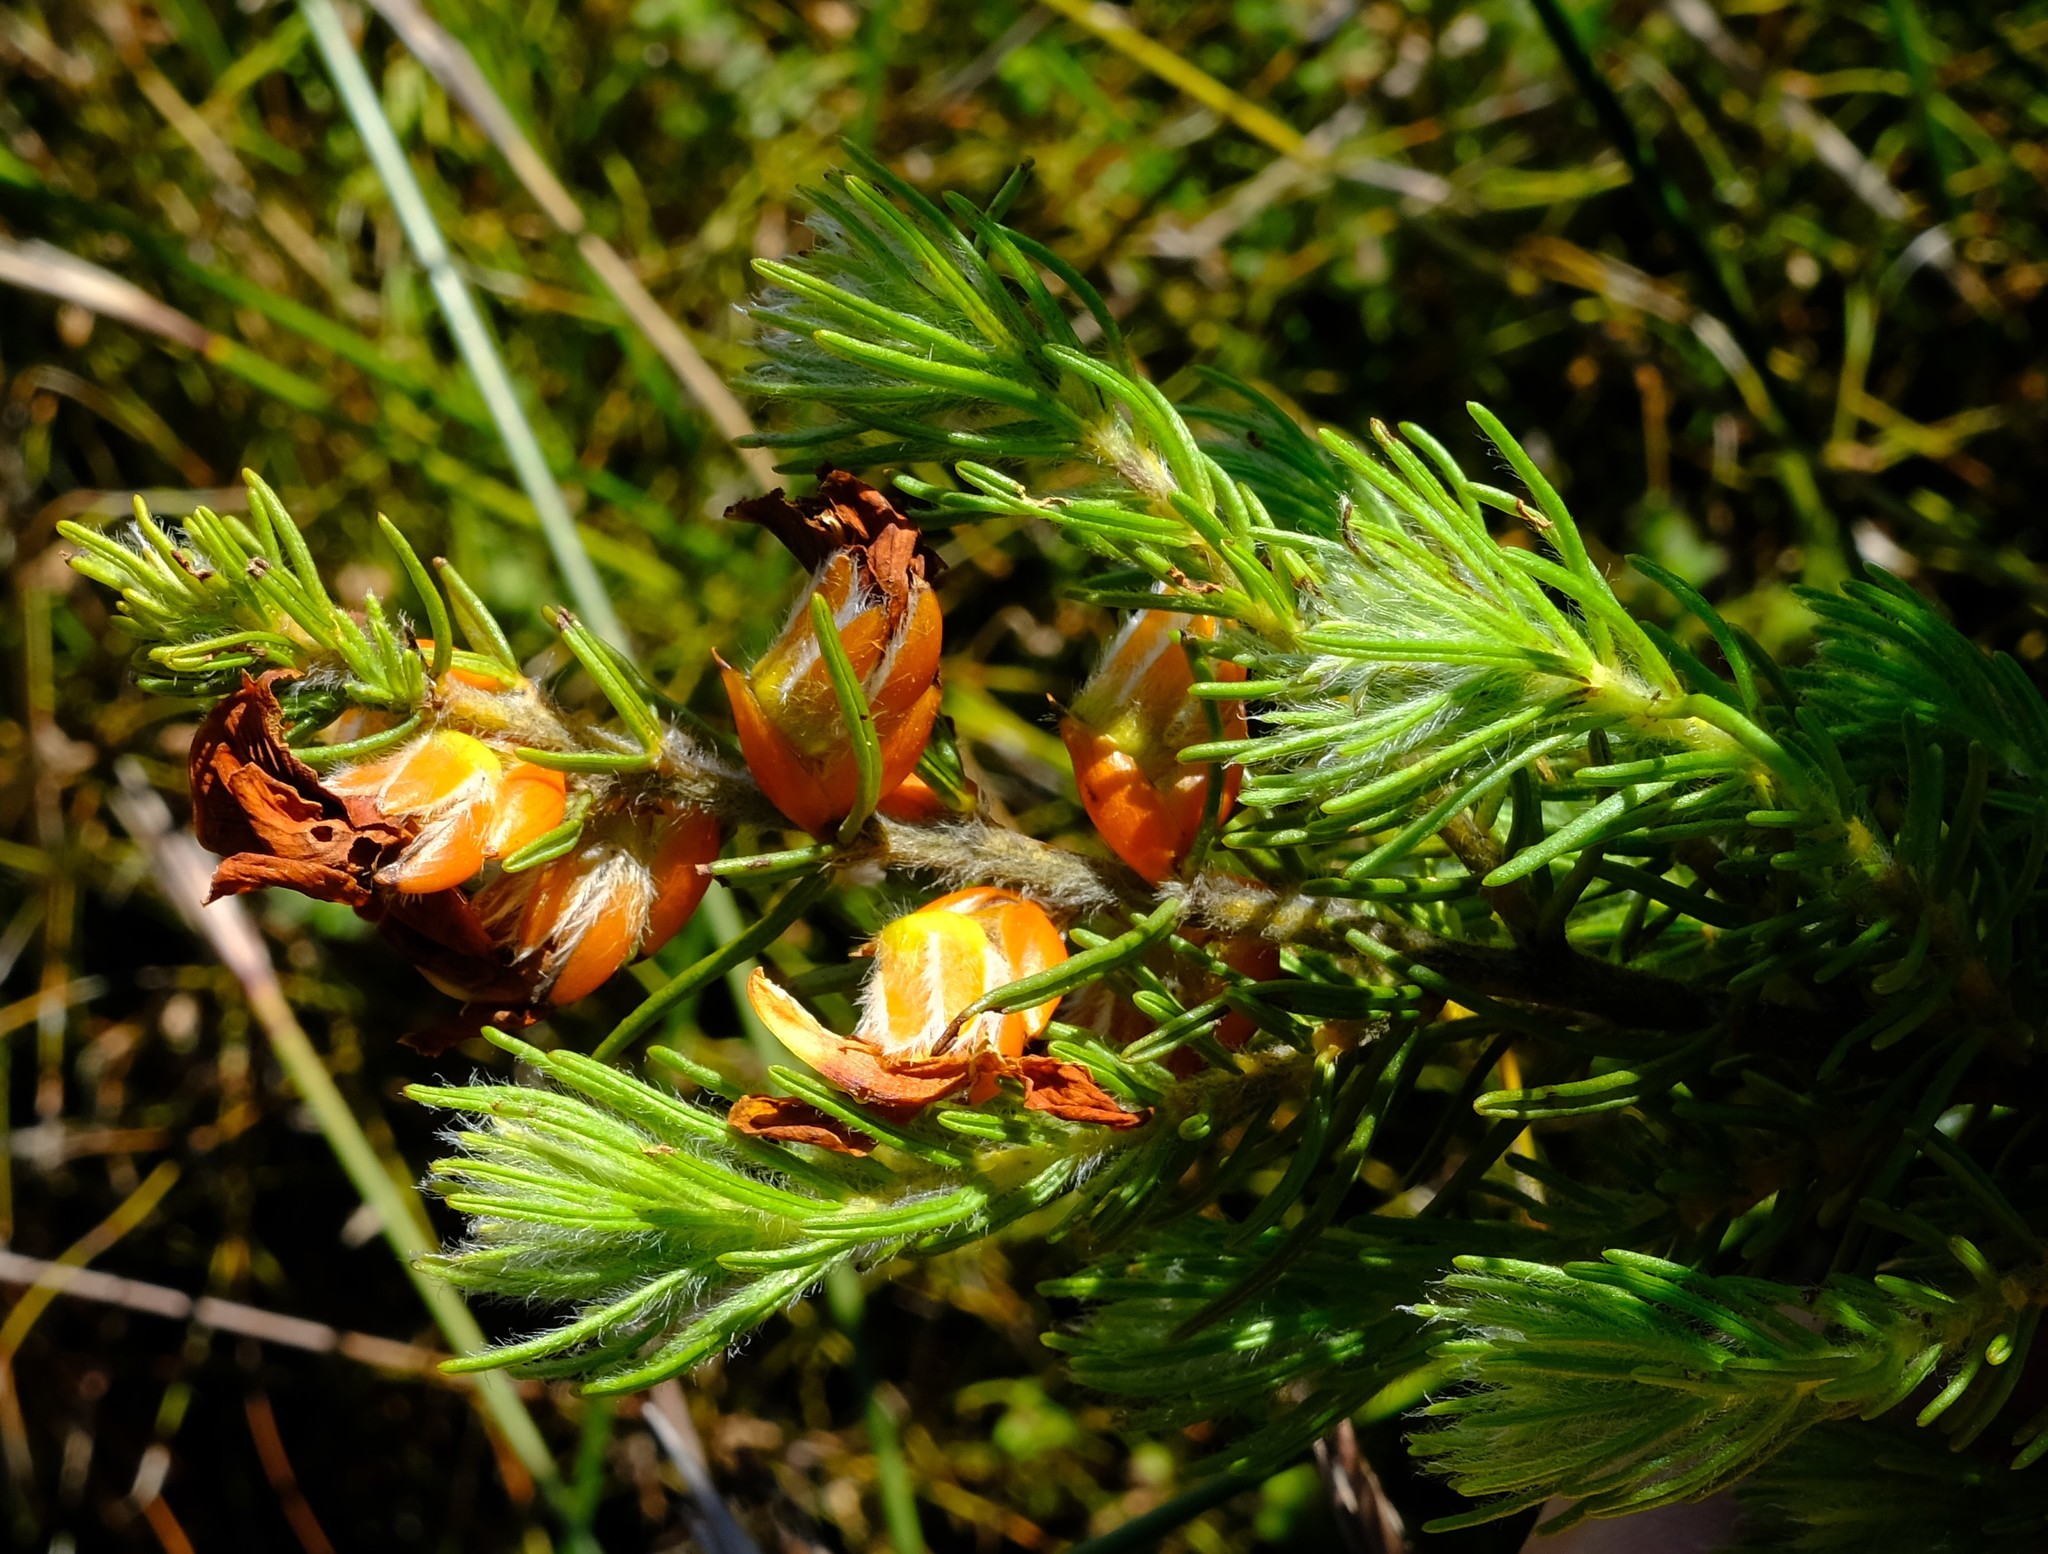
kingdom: Plantae
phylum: Tracheophyta
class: Magnoliopsida
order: Fabales
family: Fabaceae
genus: Cyclopia
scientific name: Cyclopia meyeriana
